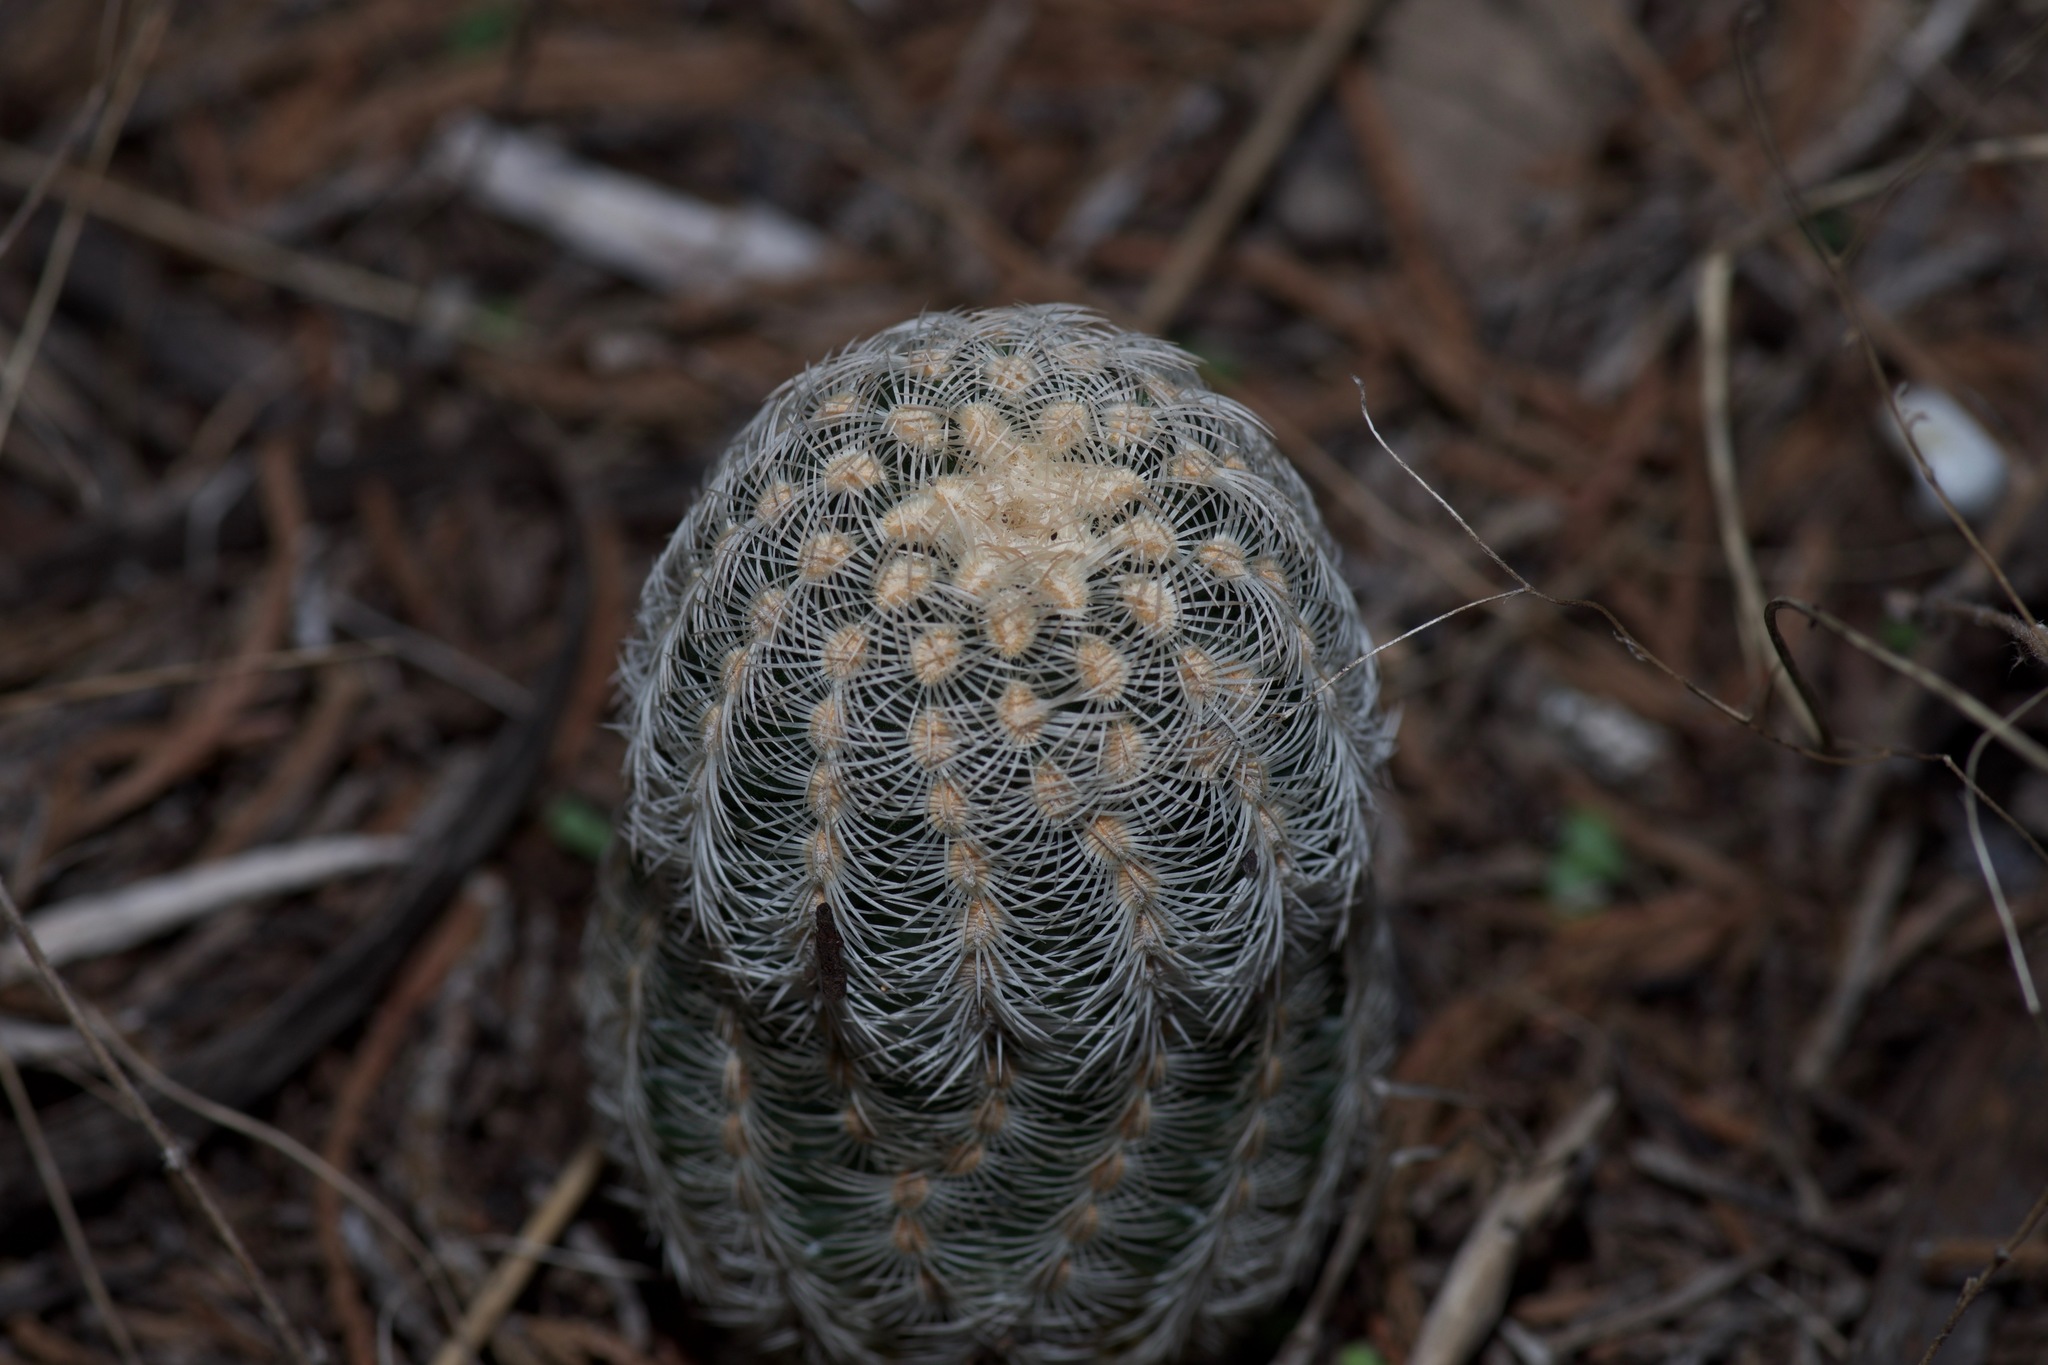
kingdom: Plantae
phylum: Tracheophyta
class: Magnoliopsida
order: Caryophyllales
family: Cactaceae
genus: Echinocereus
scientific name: Echinocereus reichenbachii
